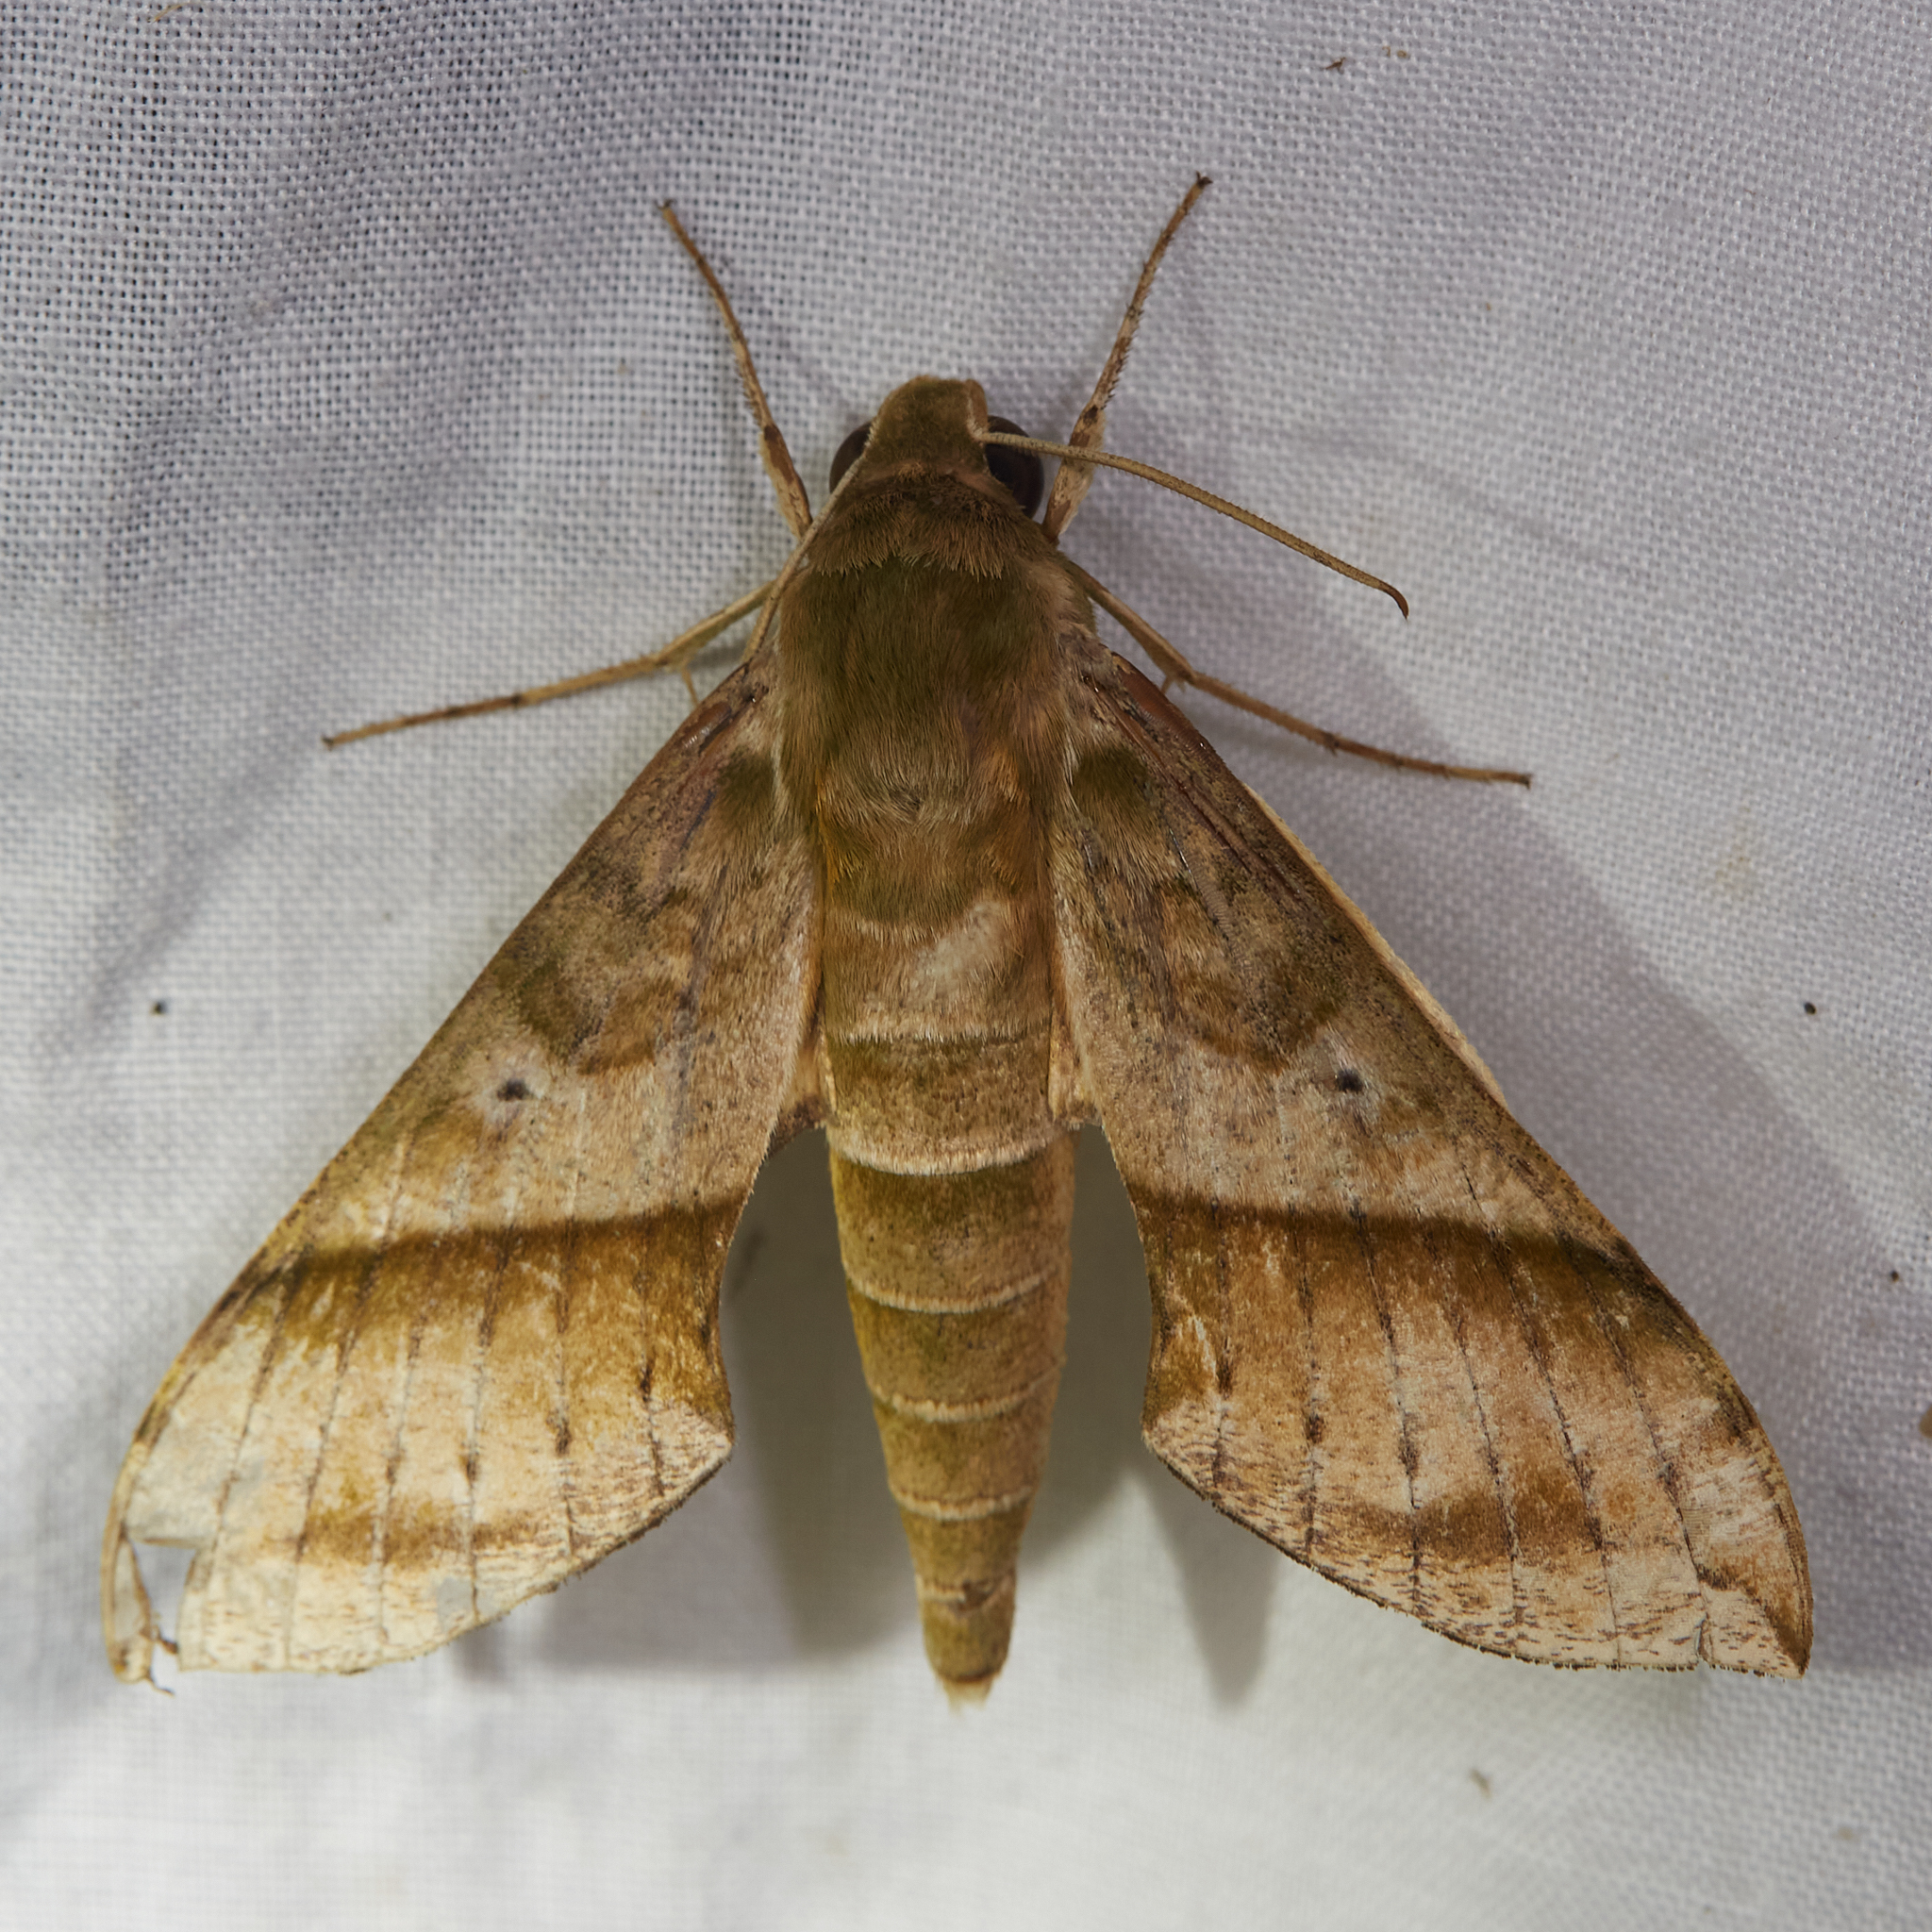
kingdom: Animalia
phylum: Arthropoda
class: Insecta
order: Lepidoptera
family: Sphingidae
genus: Xylophanes
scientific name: Xylophanes tyndarus
